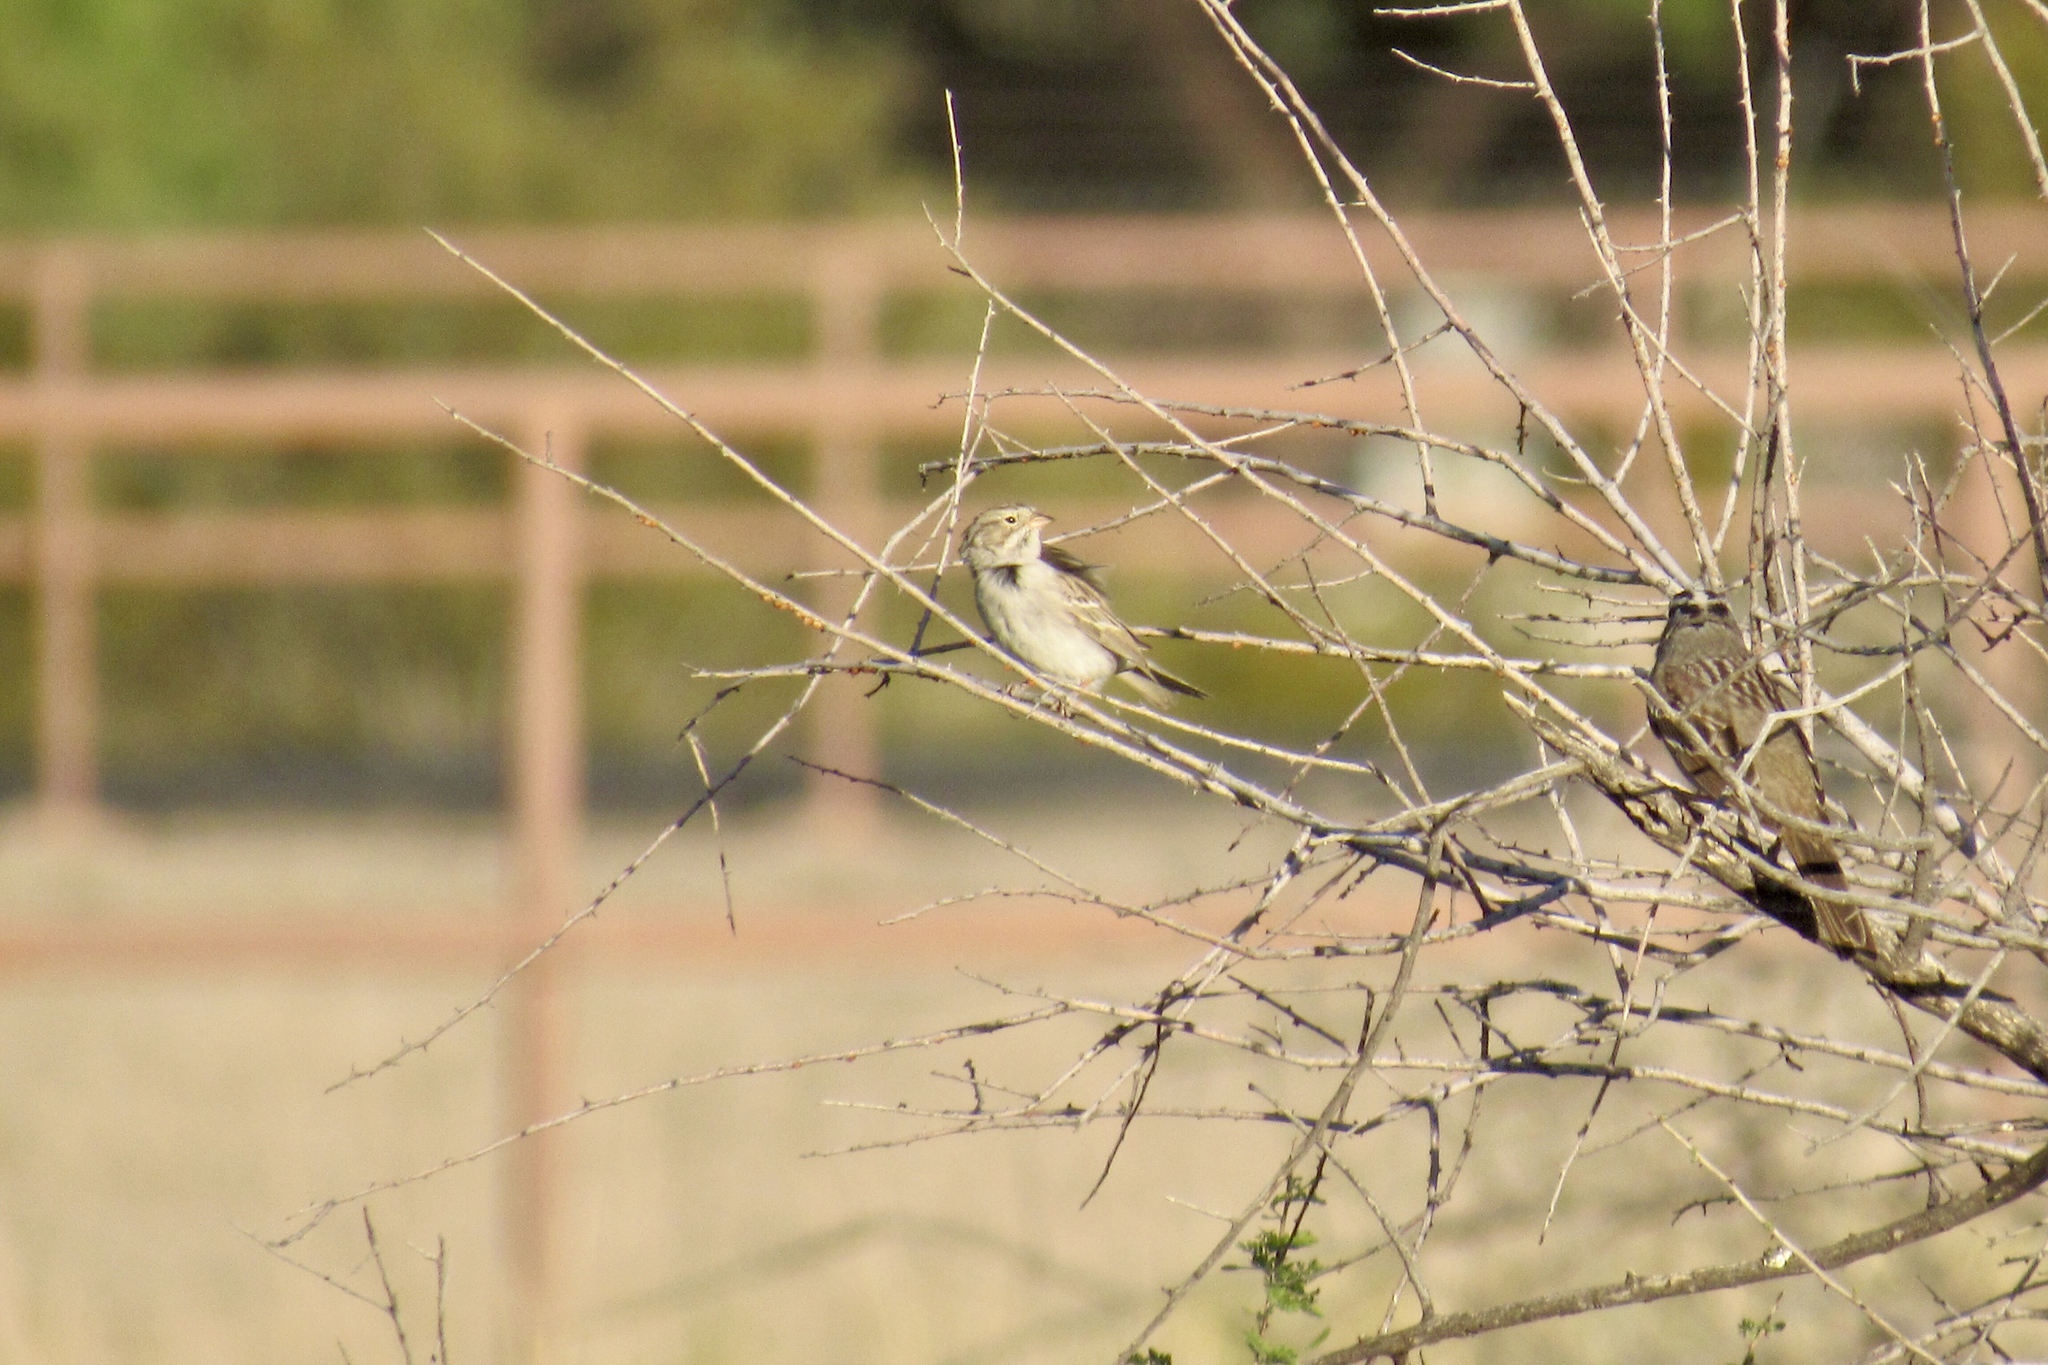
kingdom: Animalia
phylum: Chordata
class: Aves
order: Passeriformes
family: Passerellidae
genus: Zonotrichia
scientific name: Zonotrichia leucophrys
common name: White-crowned sparrow
